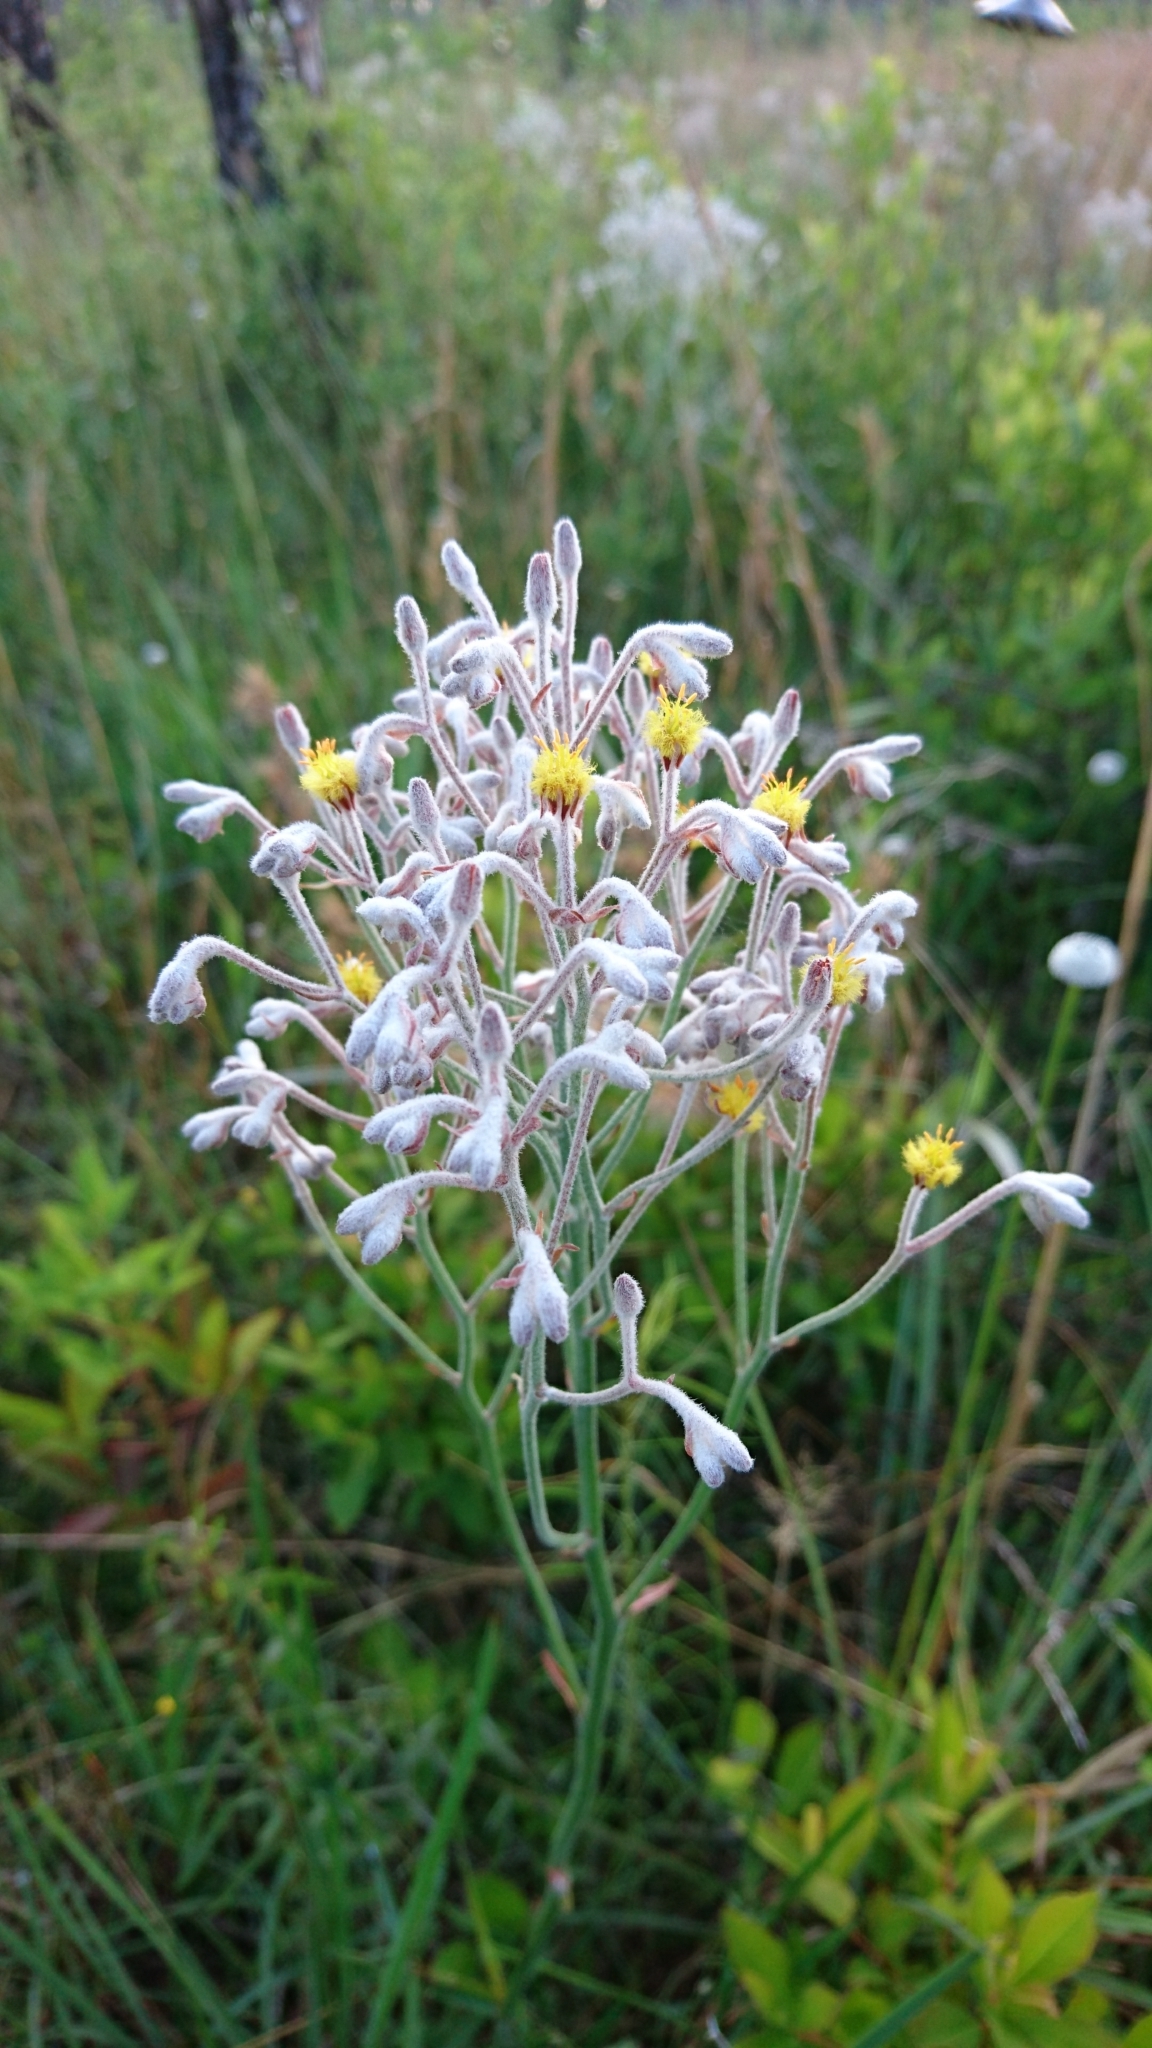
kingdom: Plantae
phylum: Tracheophyta
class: Liliopsida
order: Dioscoreales
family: Nartheciaceae
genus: Lophiola
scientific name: Lophiola aurea
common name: Golden-crest
